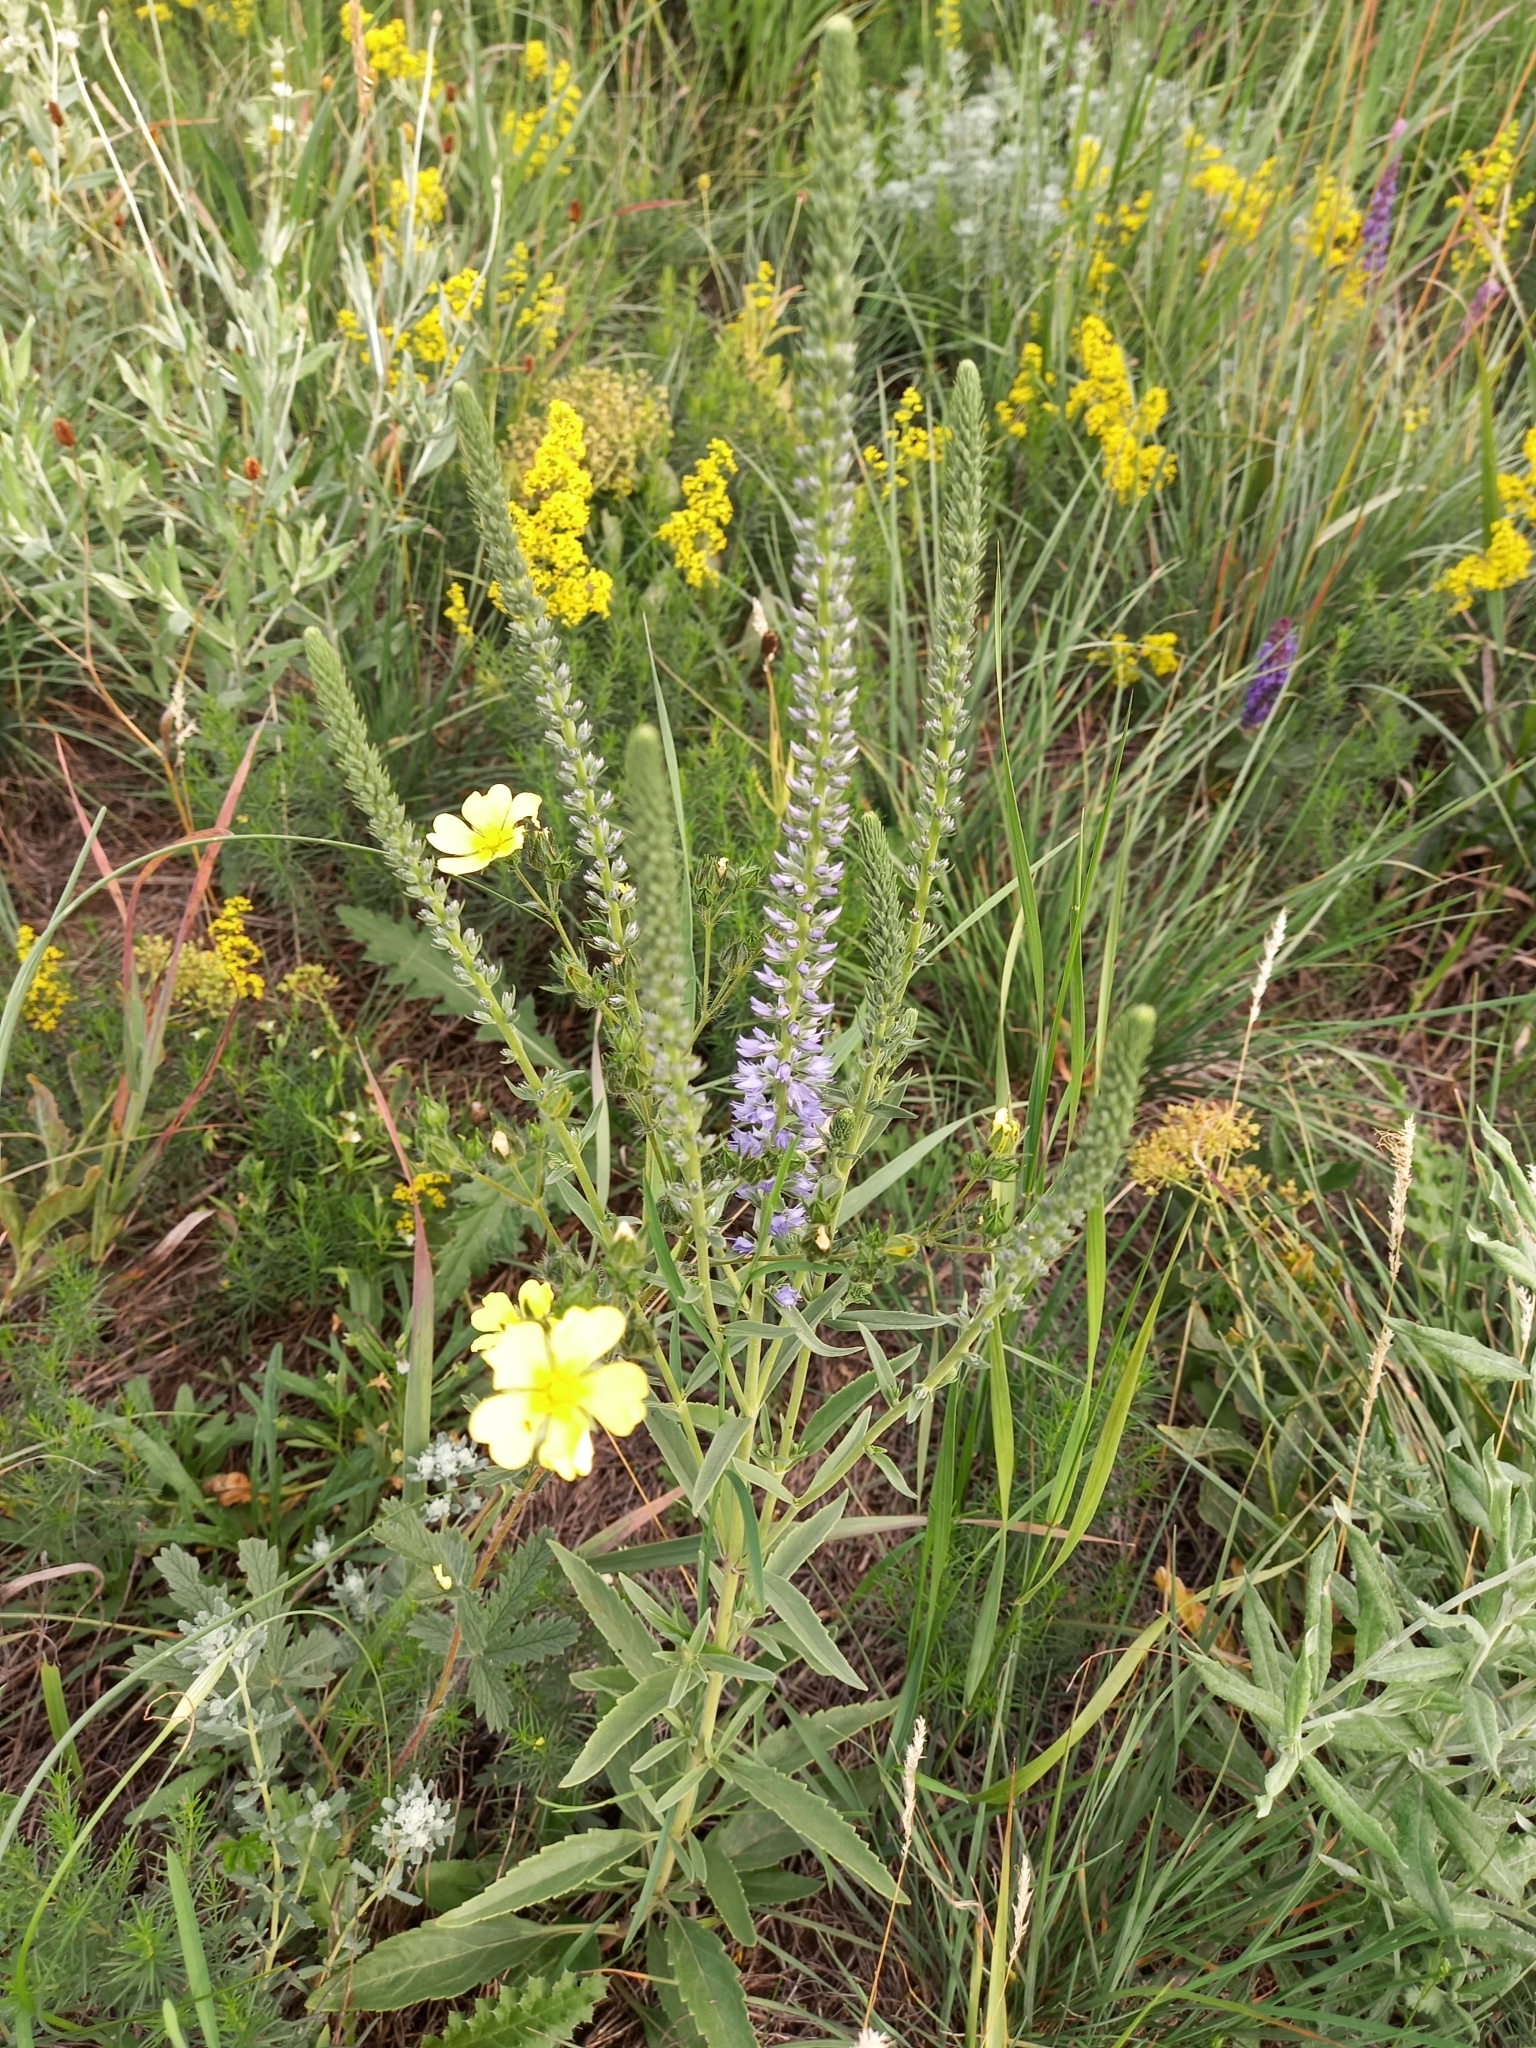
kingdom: Plantae
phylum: Tracheophyta
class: Magnoliopsida
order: Lamiales
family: Plantaginaceae
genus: Veronica
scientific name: Veronica barrelieri
